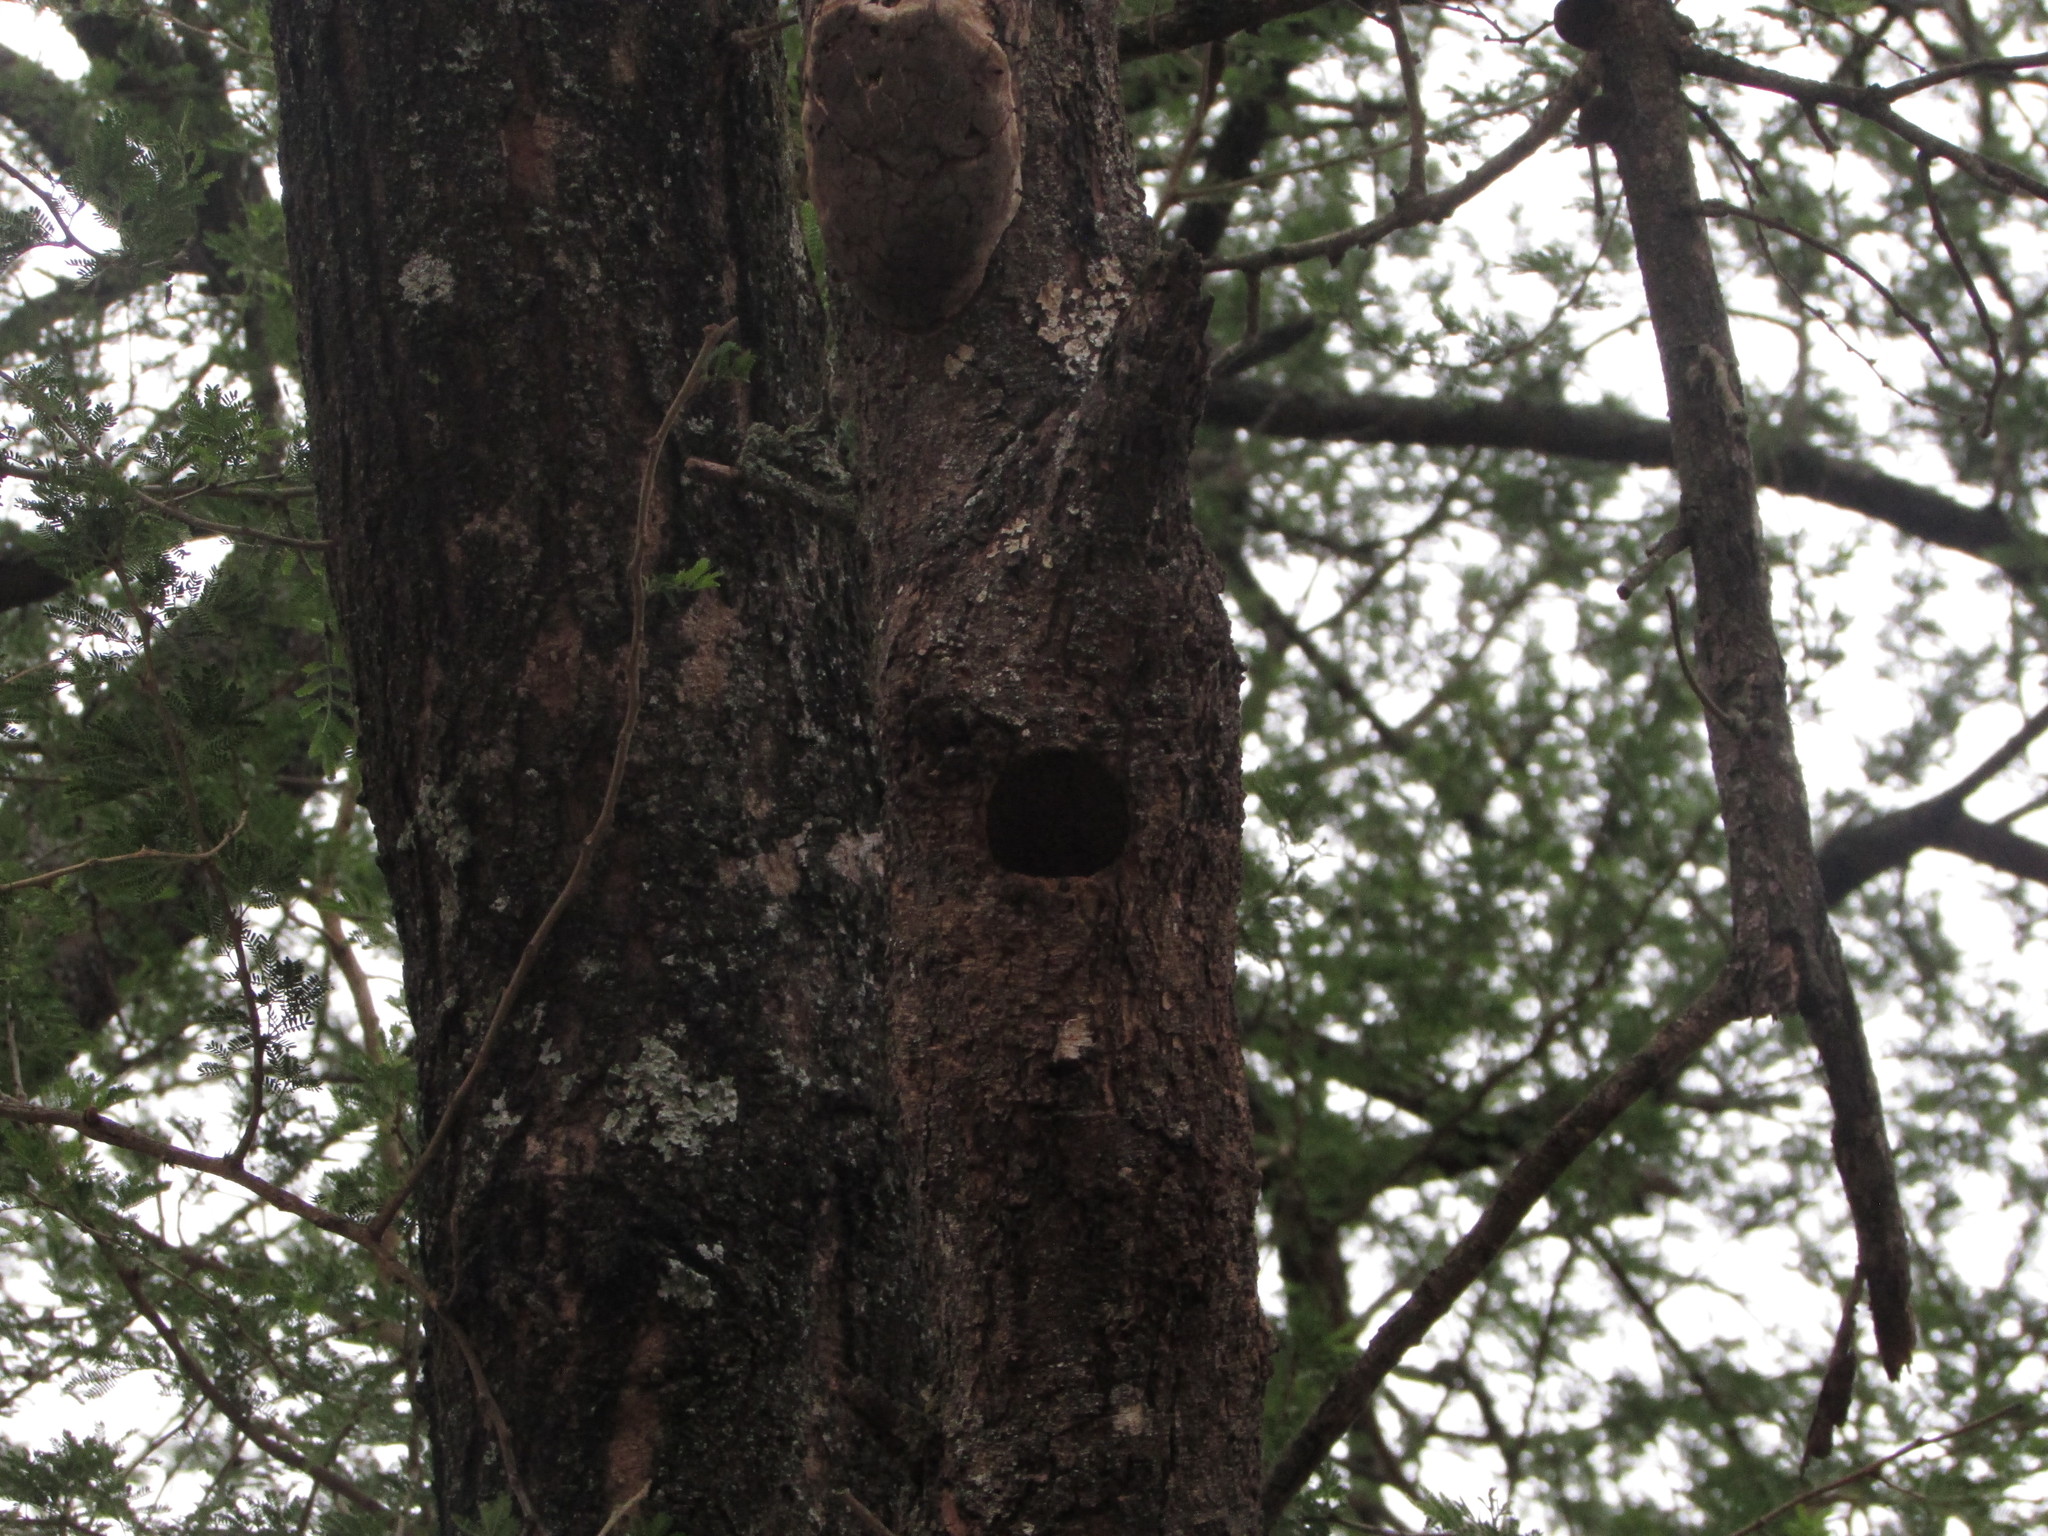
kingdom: Animalia
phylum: Chordata
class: Aves
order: Bucerotiformes
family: Phoeniculidae
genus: Phoeniculus
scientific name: Phoeniculus purpureus
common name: Green woodhoopoe
